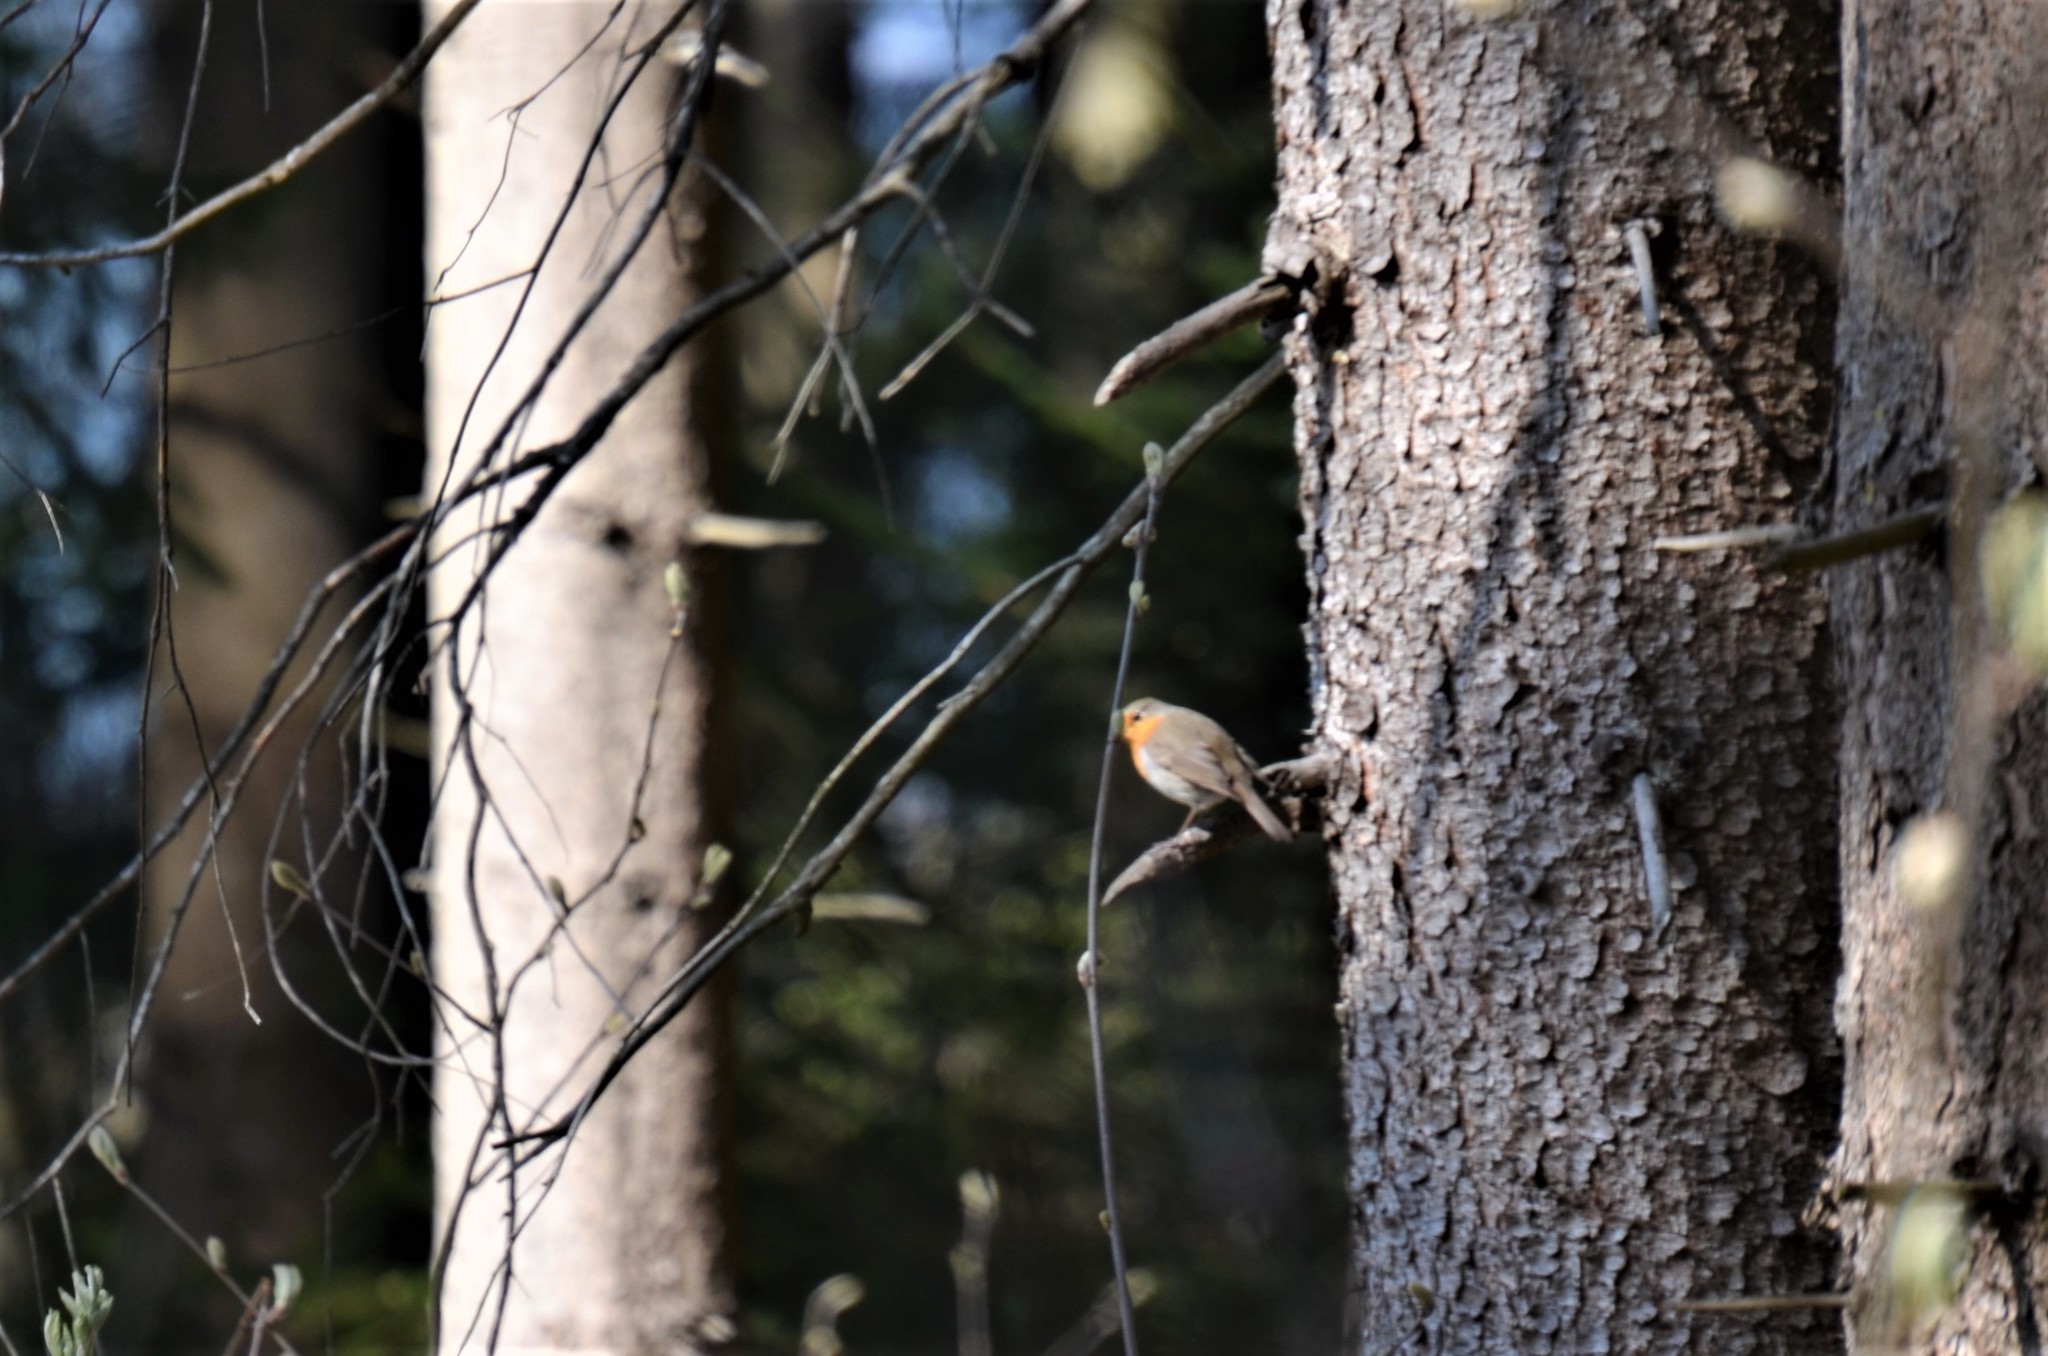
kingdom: Animalia
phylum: Chordata
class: Aves
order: Passeriformes
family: Muscicapidae
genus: Erithacus
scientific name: Erithacus rubecula
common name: European robin
